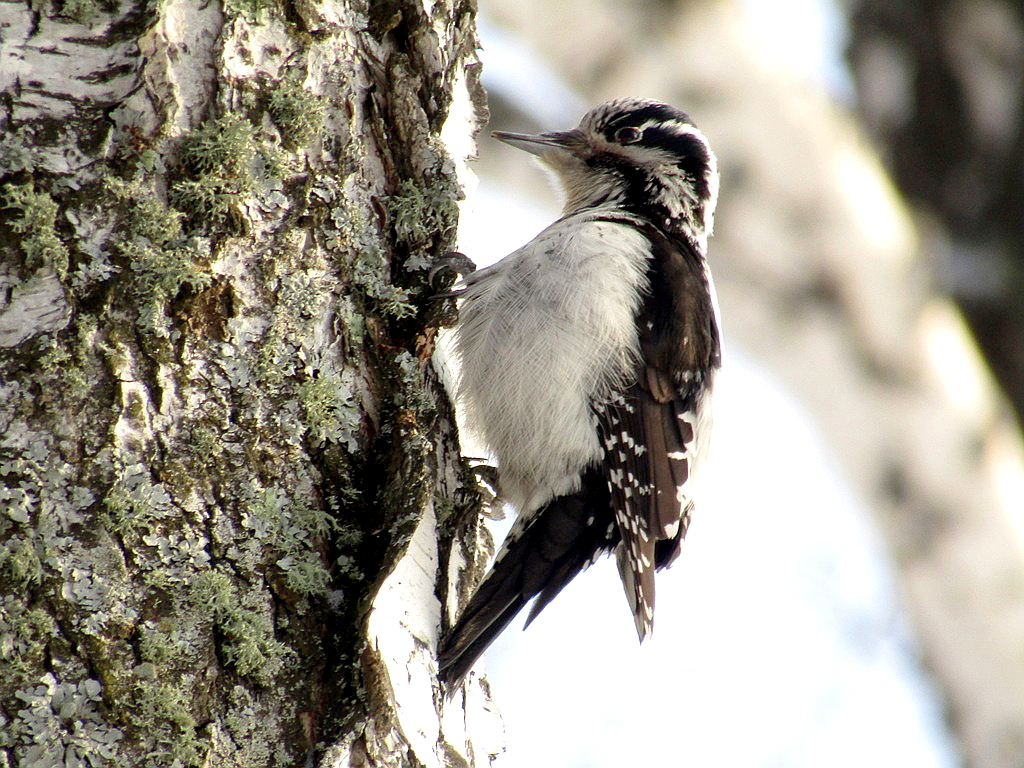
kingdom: Animalia
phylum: Chordata
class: Aves
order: Piciformes
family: Picidae
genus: Picoides
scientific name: Picoides tridactylus
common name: Eurasian three-toed woodpecker
